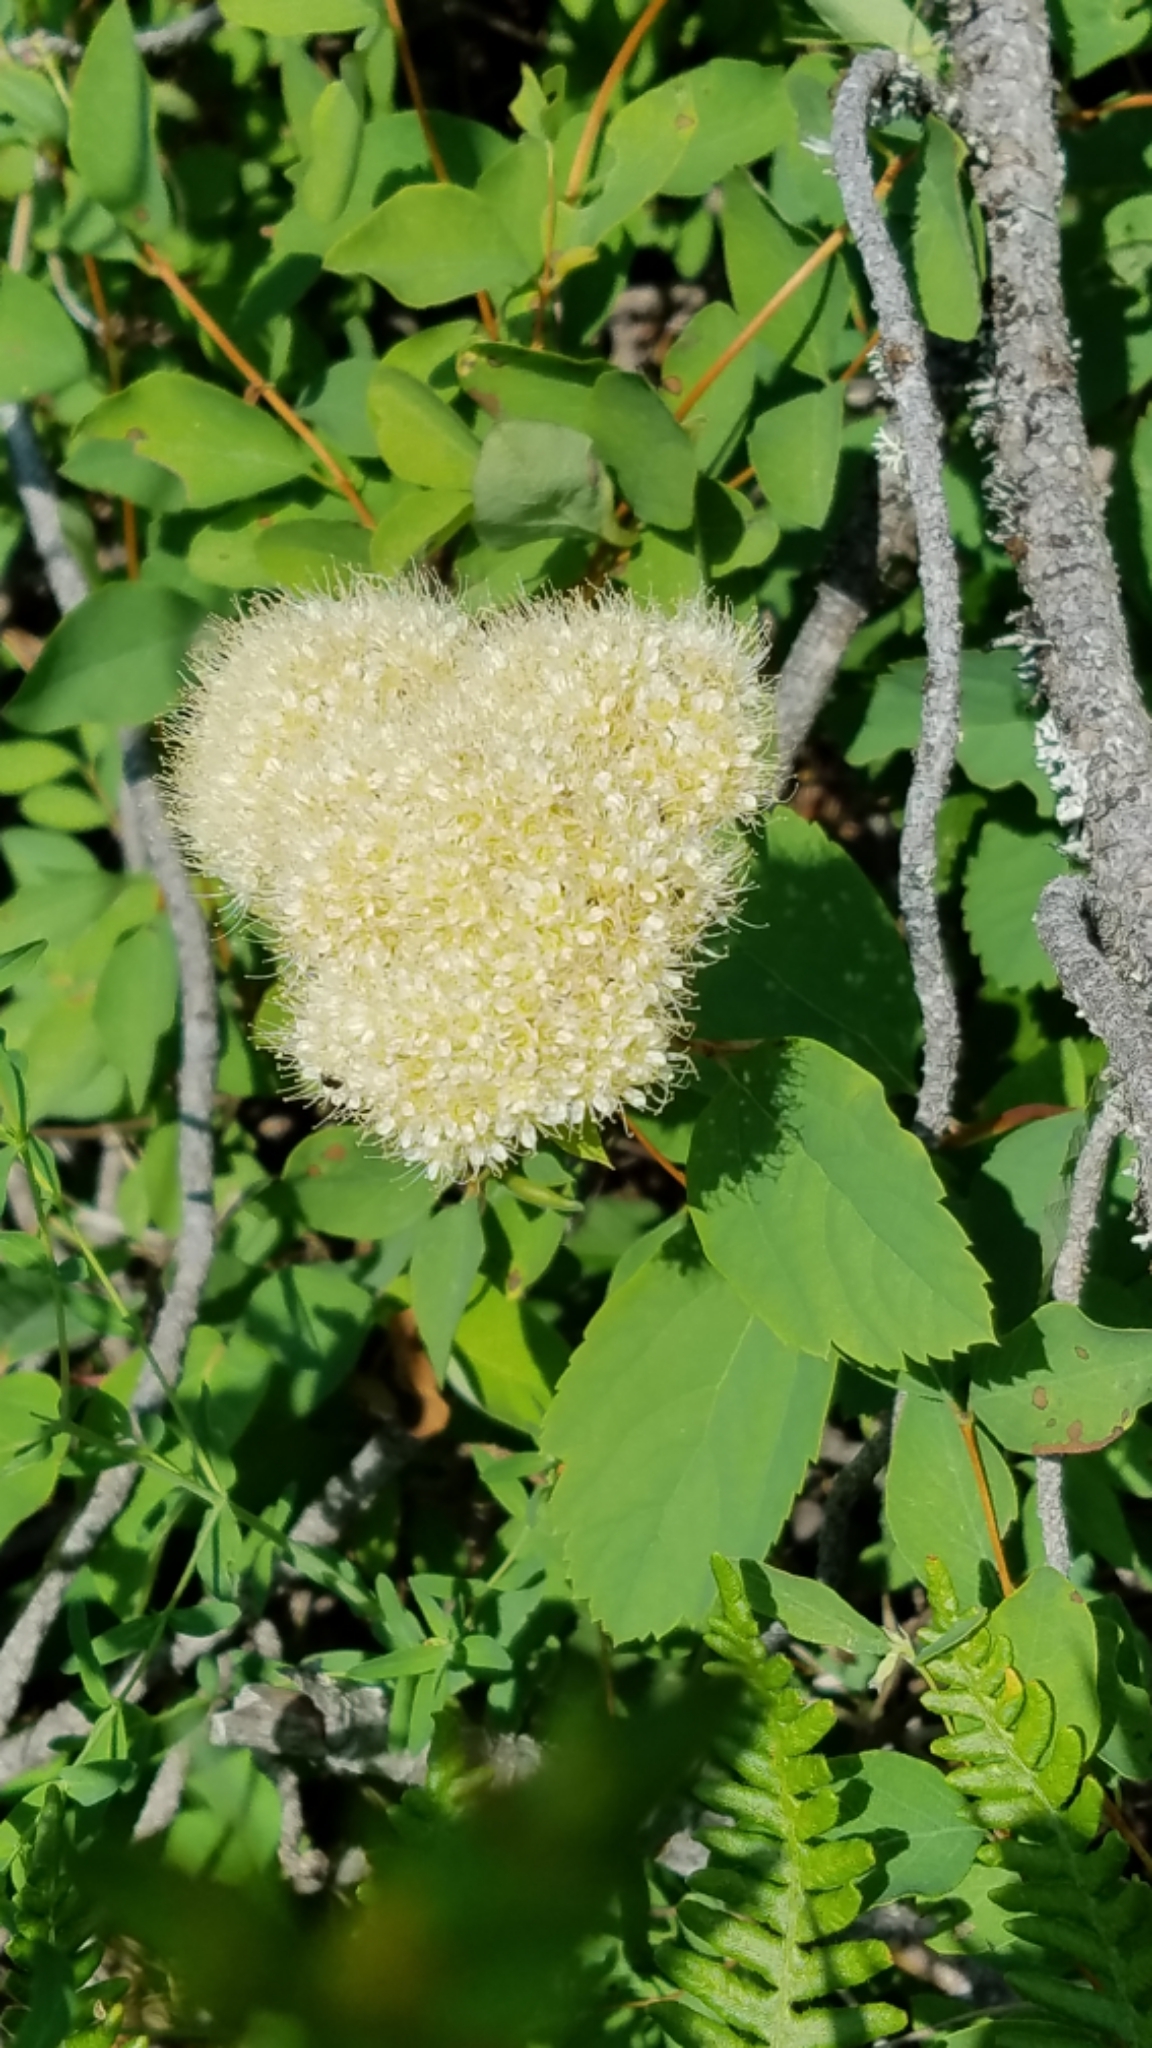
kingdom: Plantae
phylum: Tracheophyta
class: Magnoliopsida
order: Rosales
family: Rosaceae
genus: Spiraea
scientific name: Spiraea lucida
